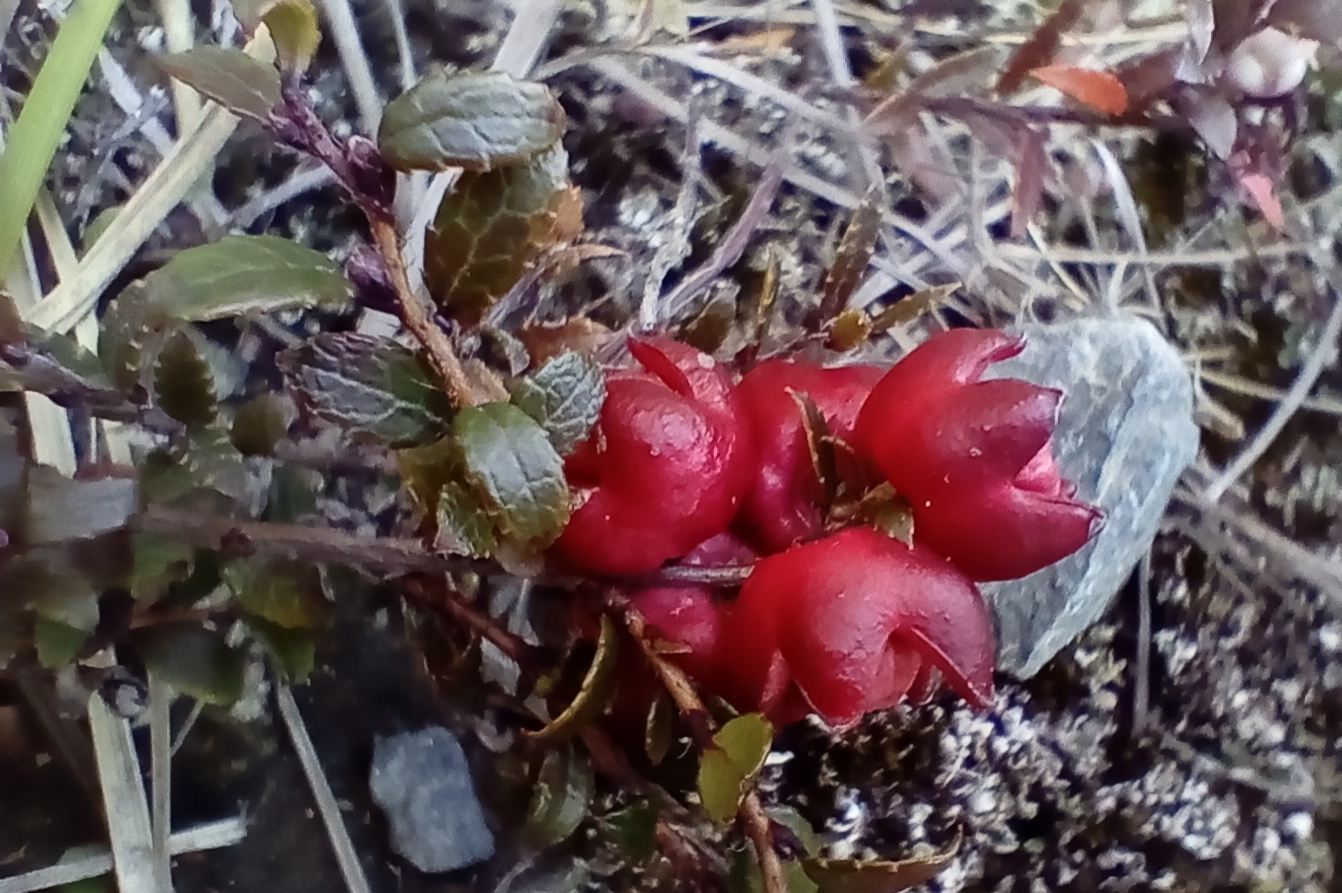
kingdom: Plantae
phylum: Tracheophyta
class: Magnoliopsida
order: Ericales
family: Ericaceae
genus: Gaultheria
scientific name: Gaultheria
